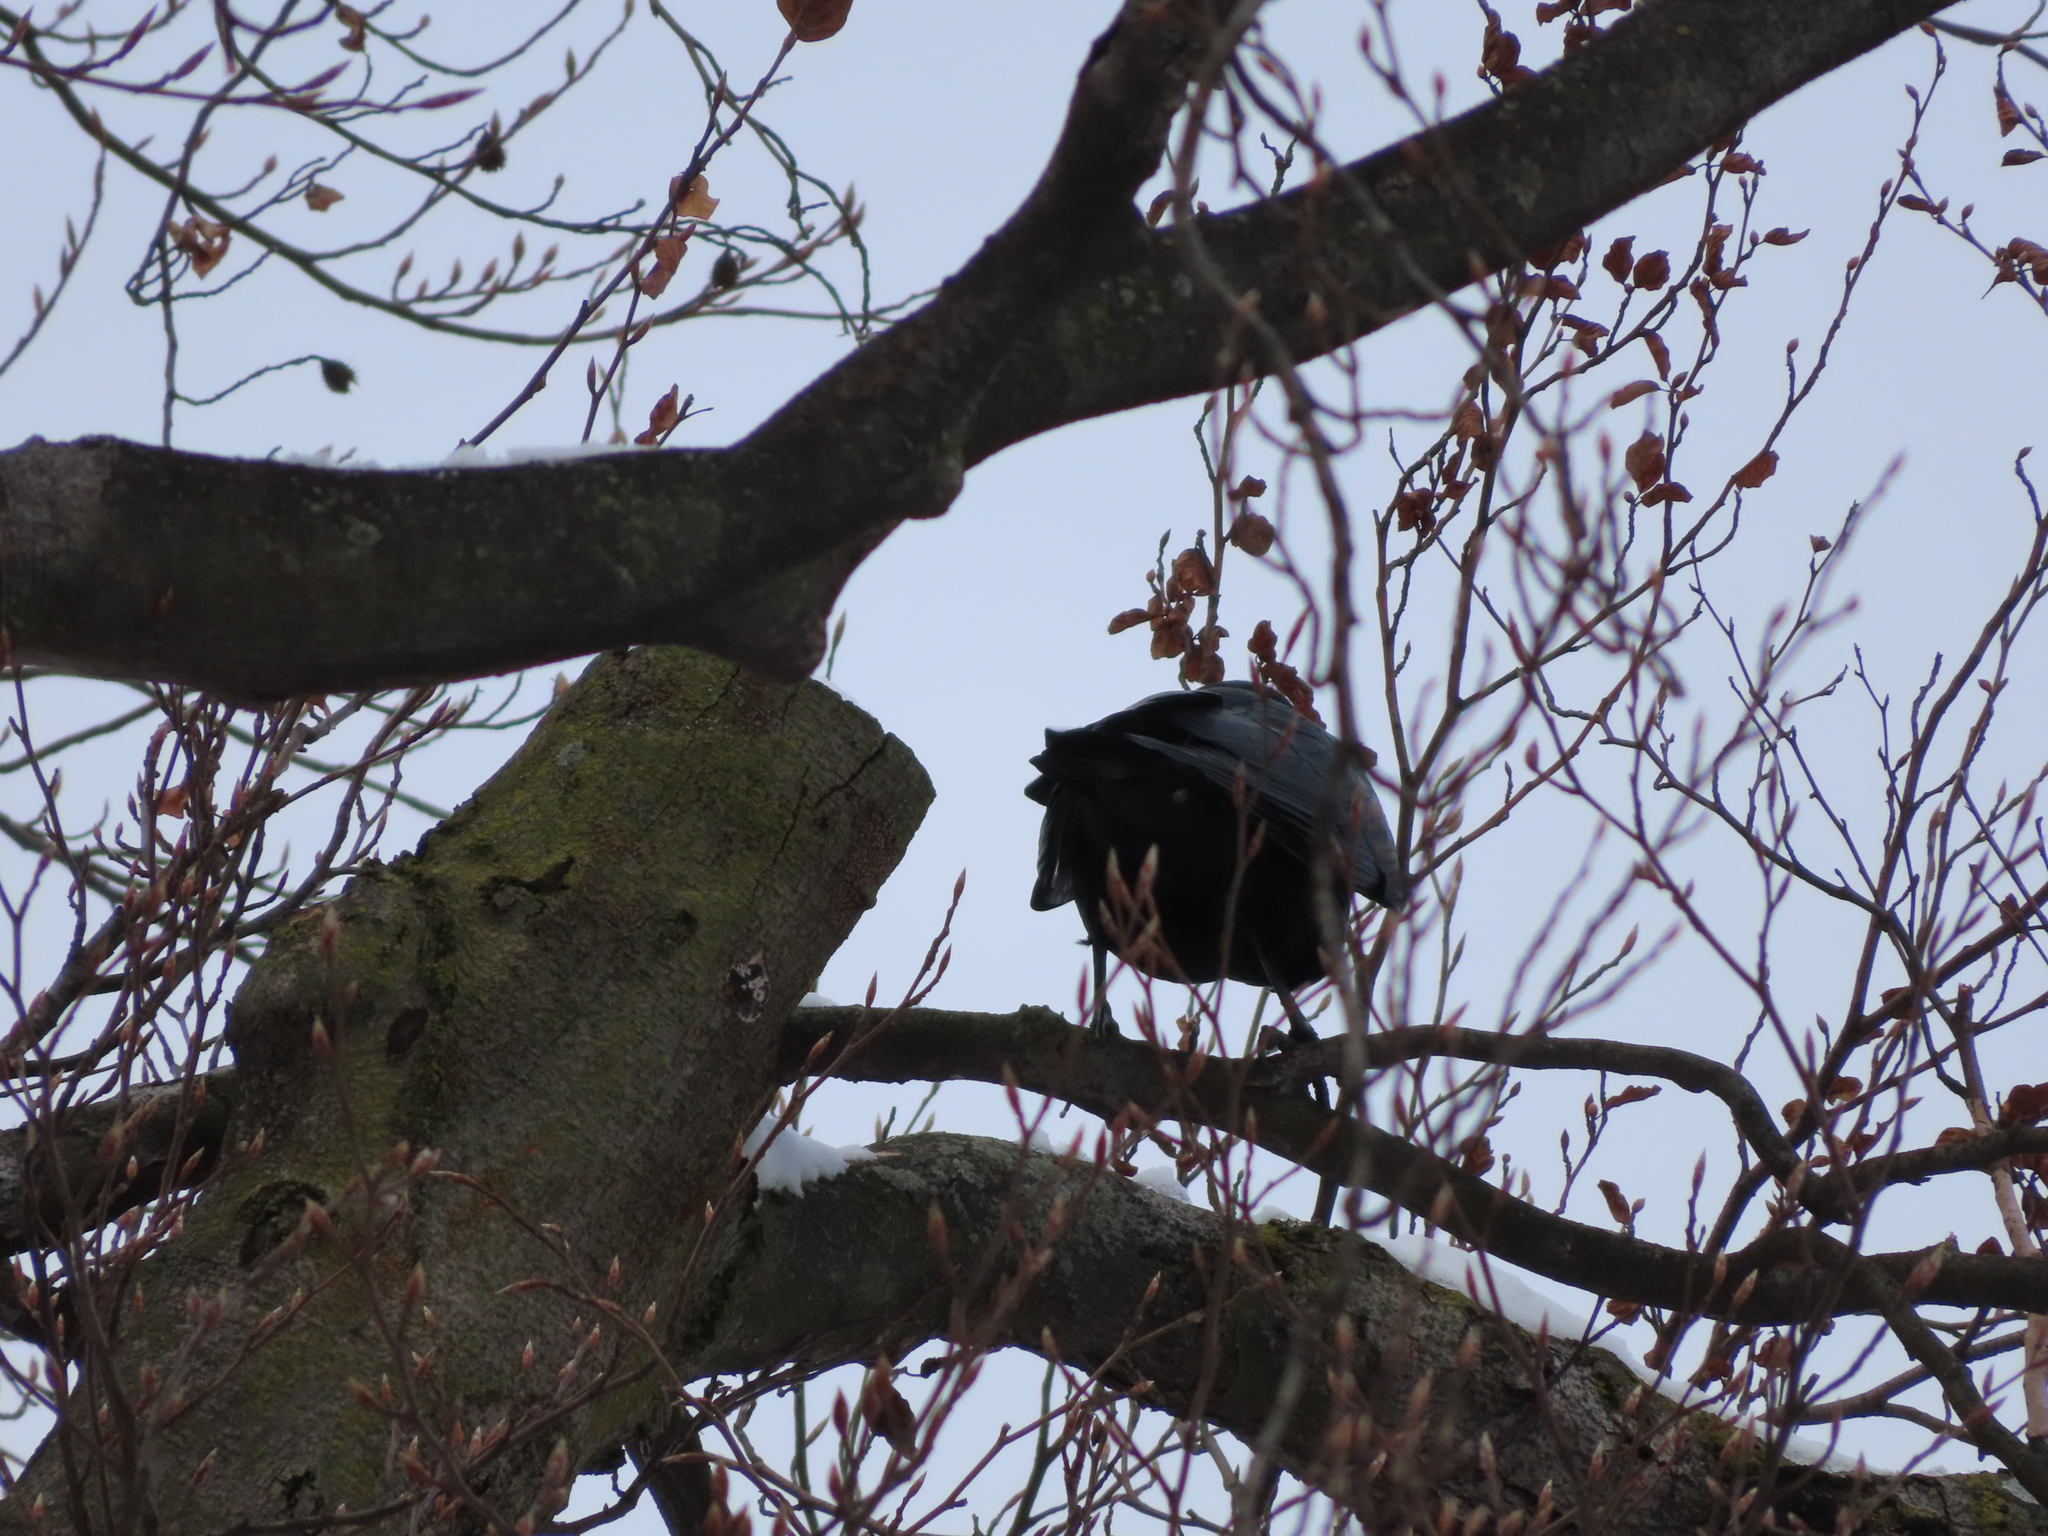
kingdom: Animalia
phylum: Chordata
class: Aves
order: Passeriformes
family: Corvidae
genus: Corvus
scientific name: Corvus
